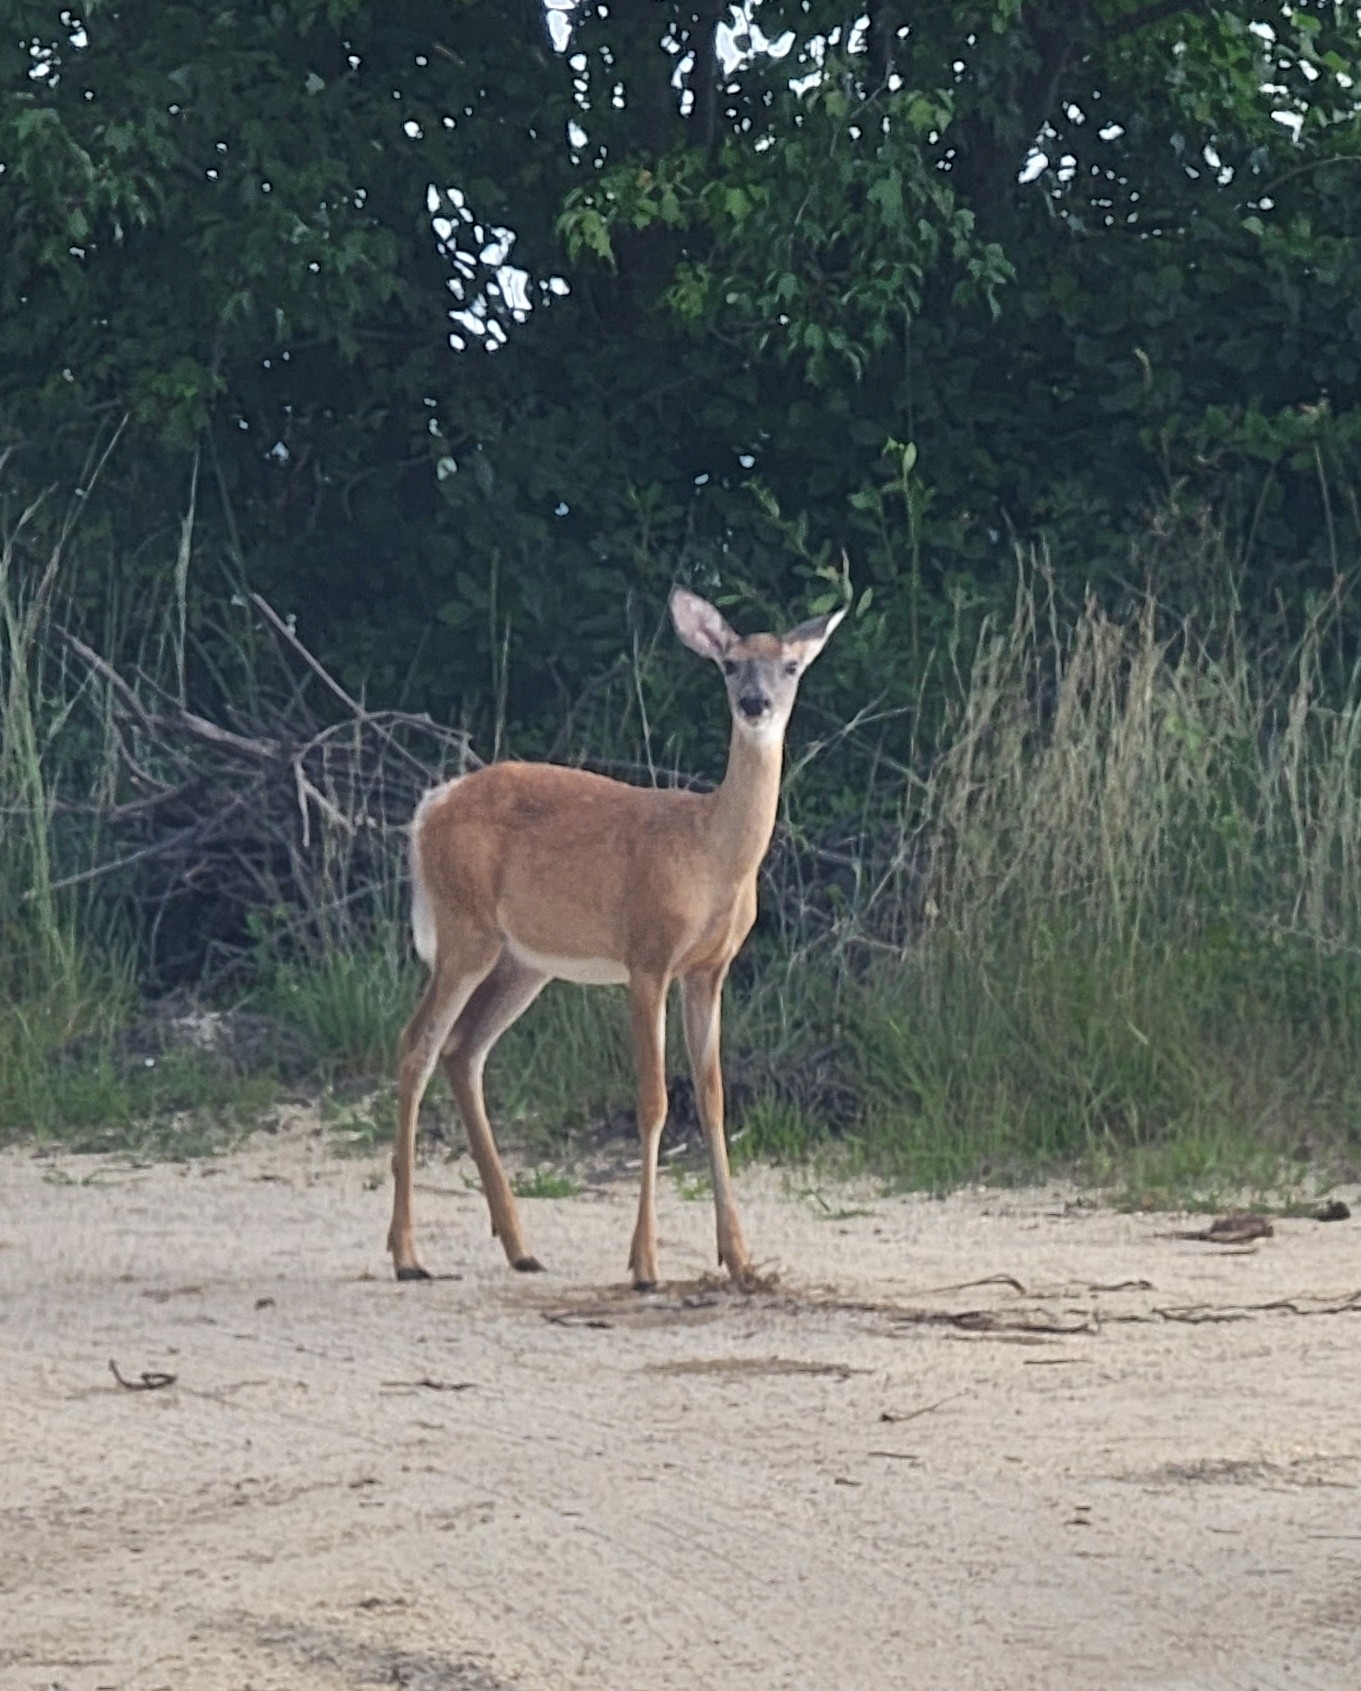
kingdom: Animalia
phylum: Chordata
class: Mammalia
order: Artiodactyla
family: Cervidae
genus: Odocoileus
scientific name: Odocoileus virginianus
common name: White-tailed deer
